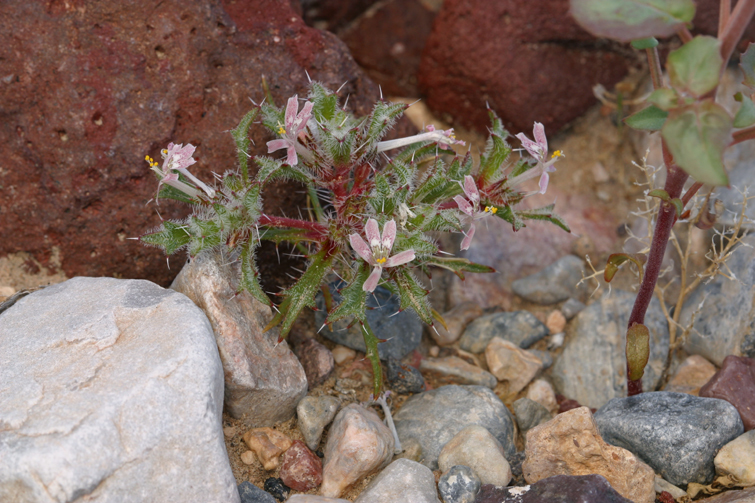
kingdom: Plantae
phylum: Tracheophyta
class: Magnoliopsida
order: Ericales
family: Polemoniaceae
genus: Loeseliastrum
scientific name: Loeseliastrum matthewsii
